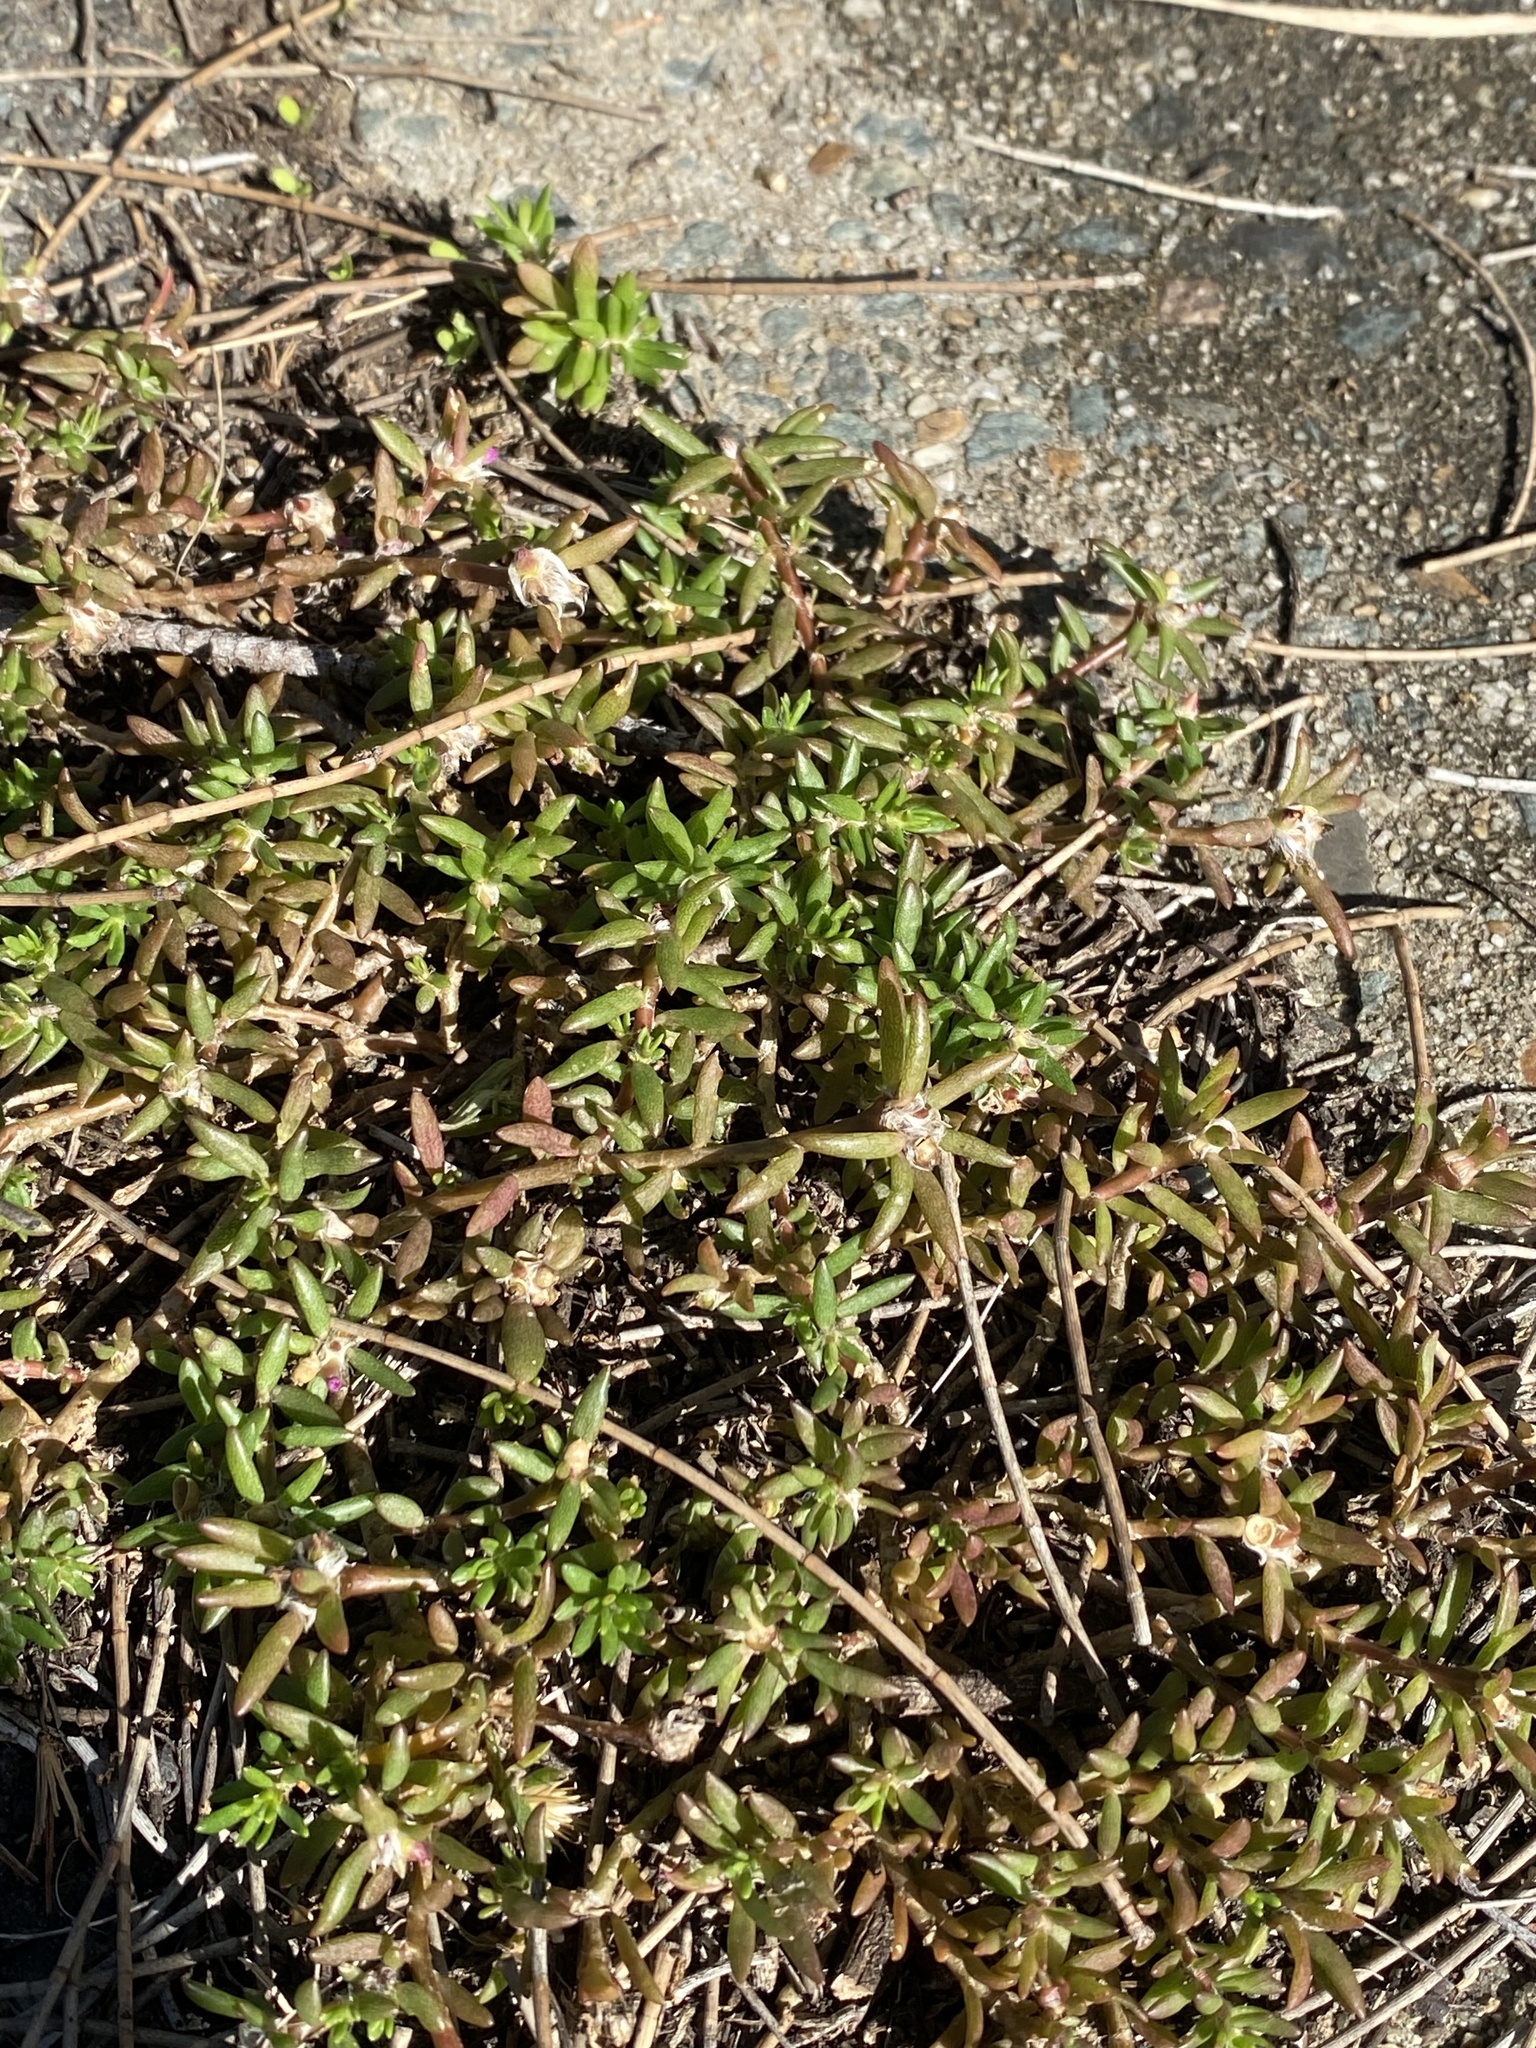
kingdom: Plantae
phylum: Tracheophyta
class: Magnoliopsida
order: Caryophyllales
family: Portulacaceae
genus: Portulaca
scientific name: Portulaca pilosa
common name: Kiss me quick
